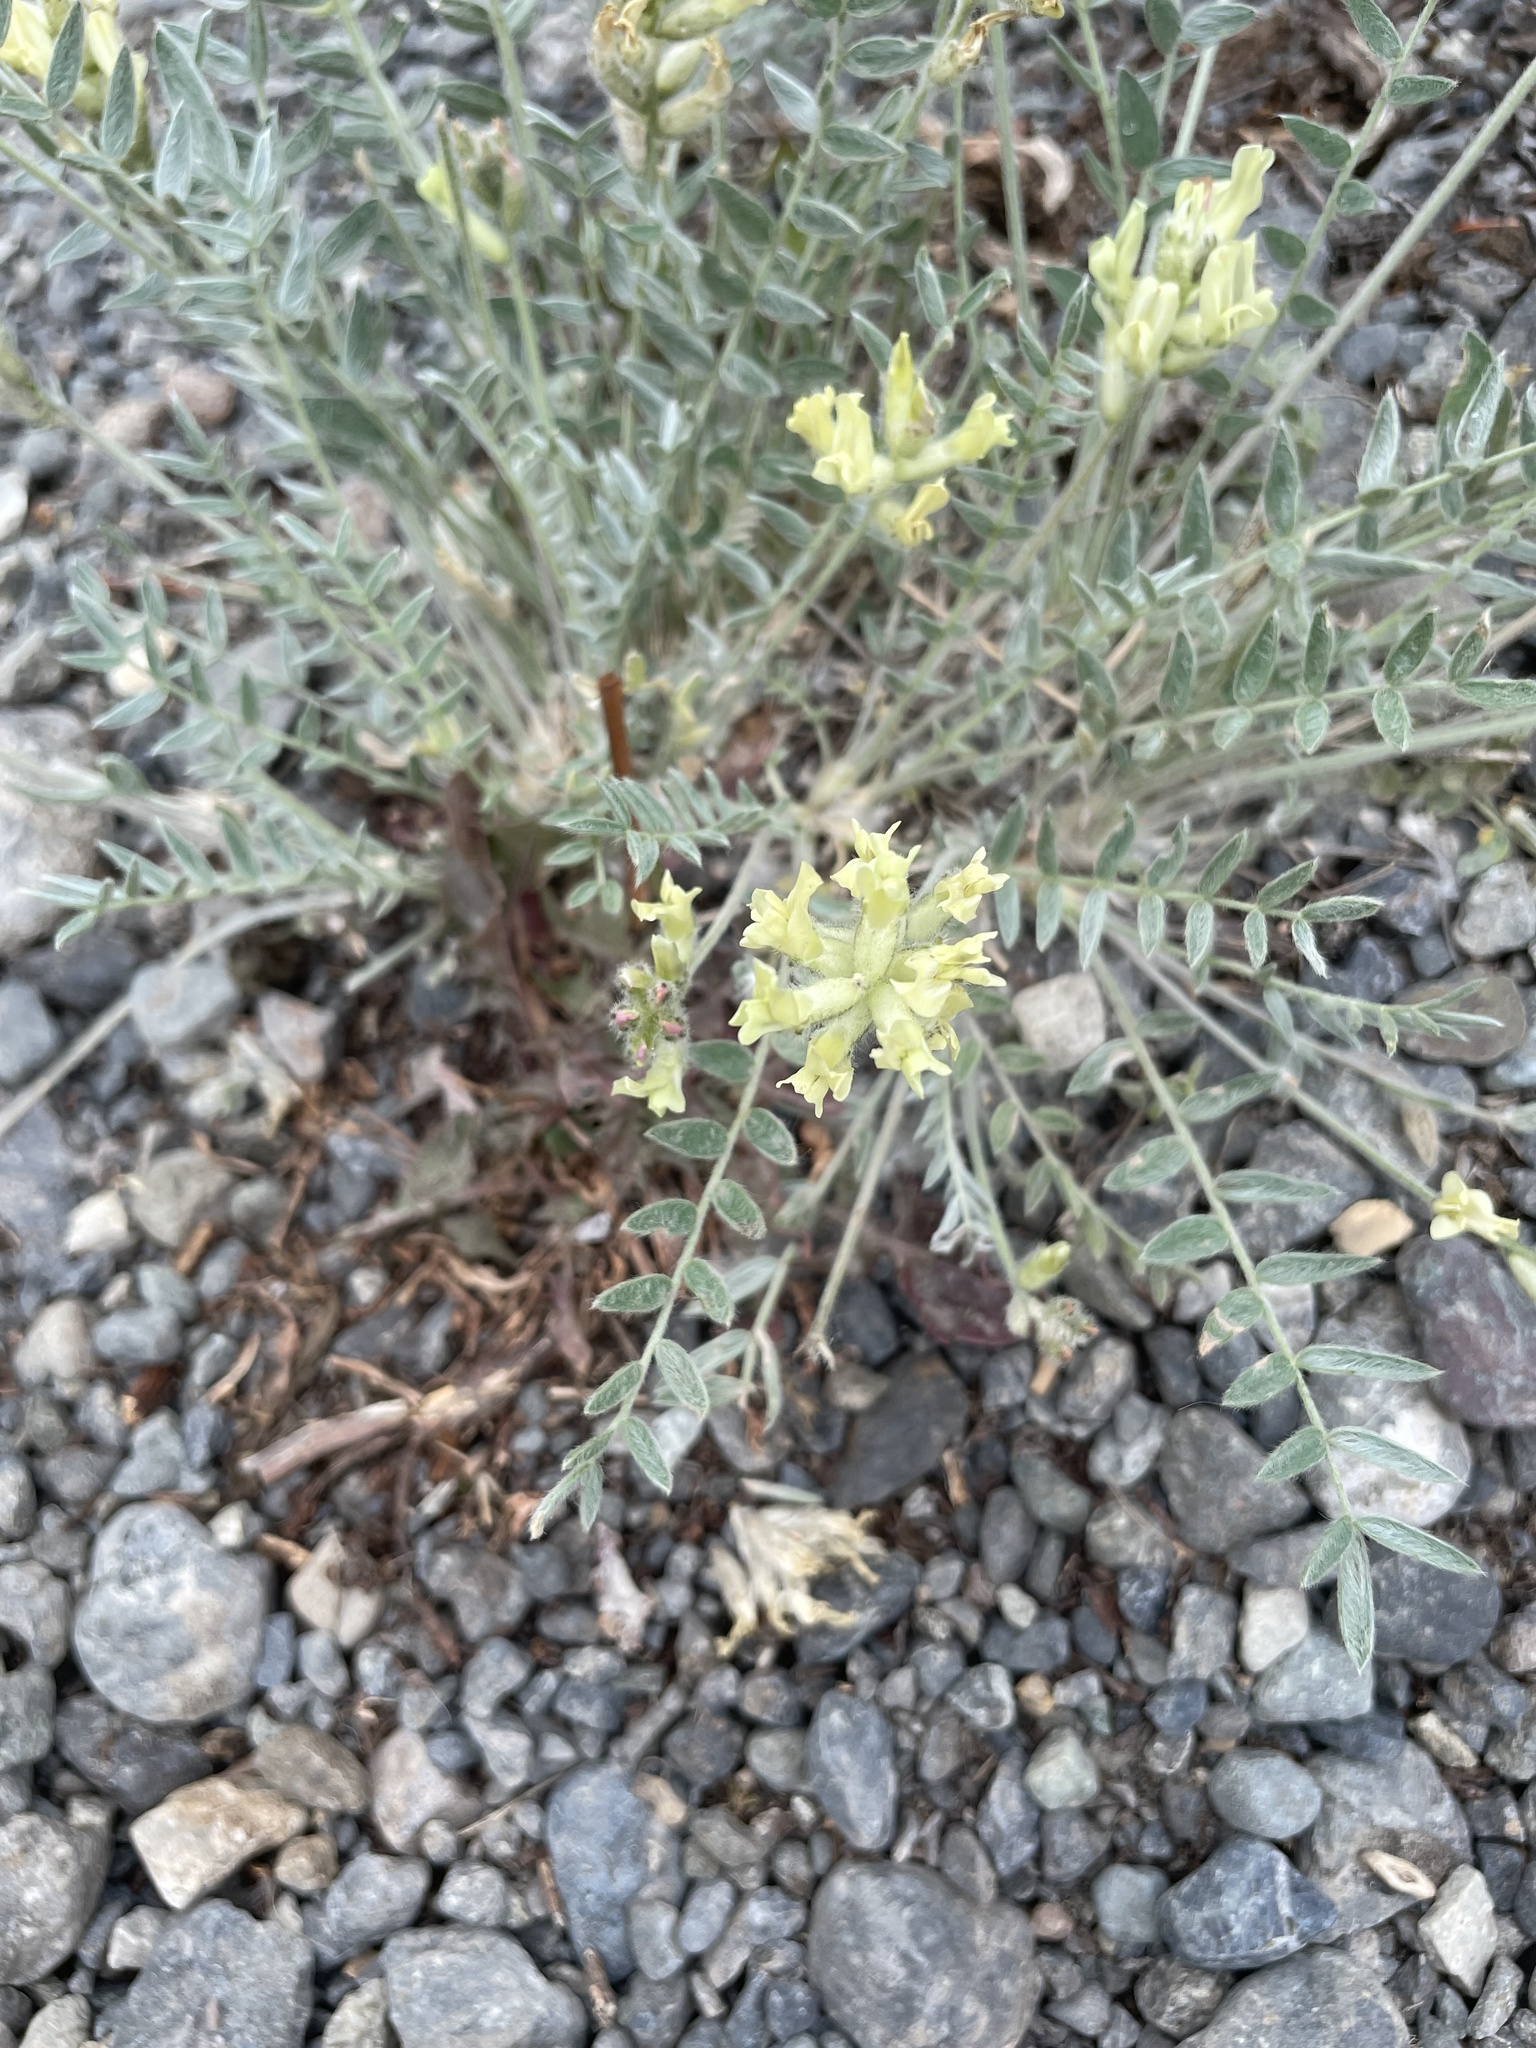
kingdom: Plantae
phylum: Tracheophyta
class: Magnoliopsida
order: Fabales
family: Fabaceae
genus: Oxytropis
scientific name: Oxytropis campestris
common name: Field locoweed
